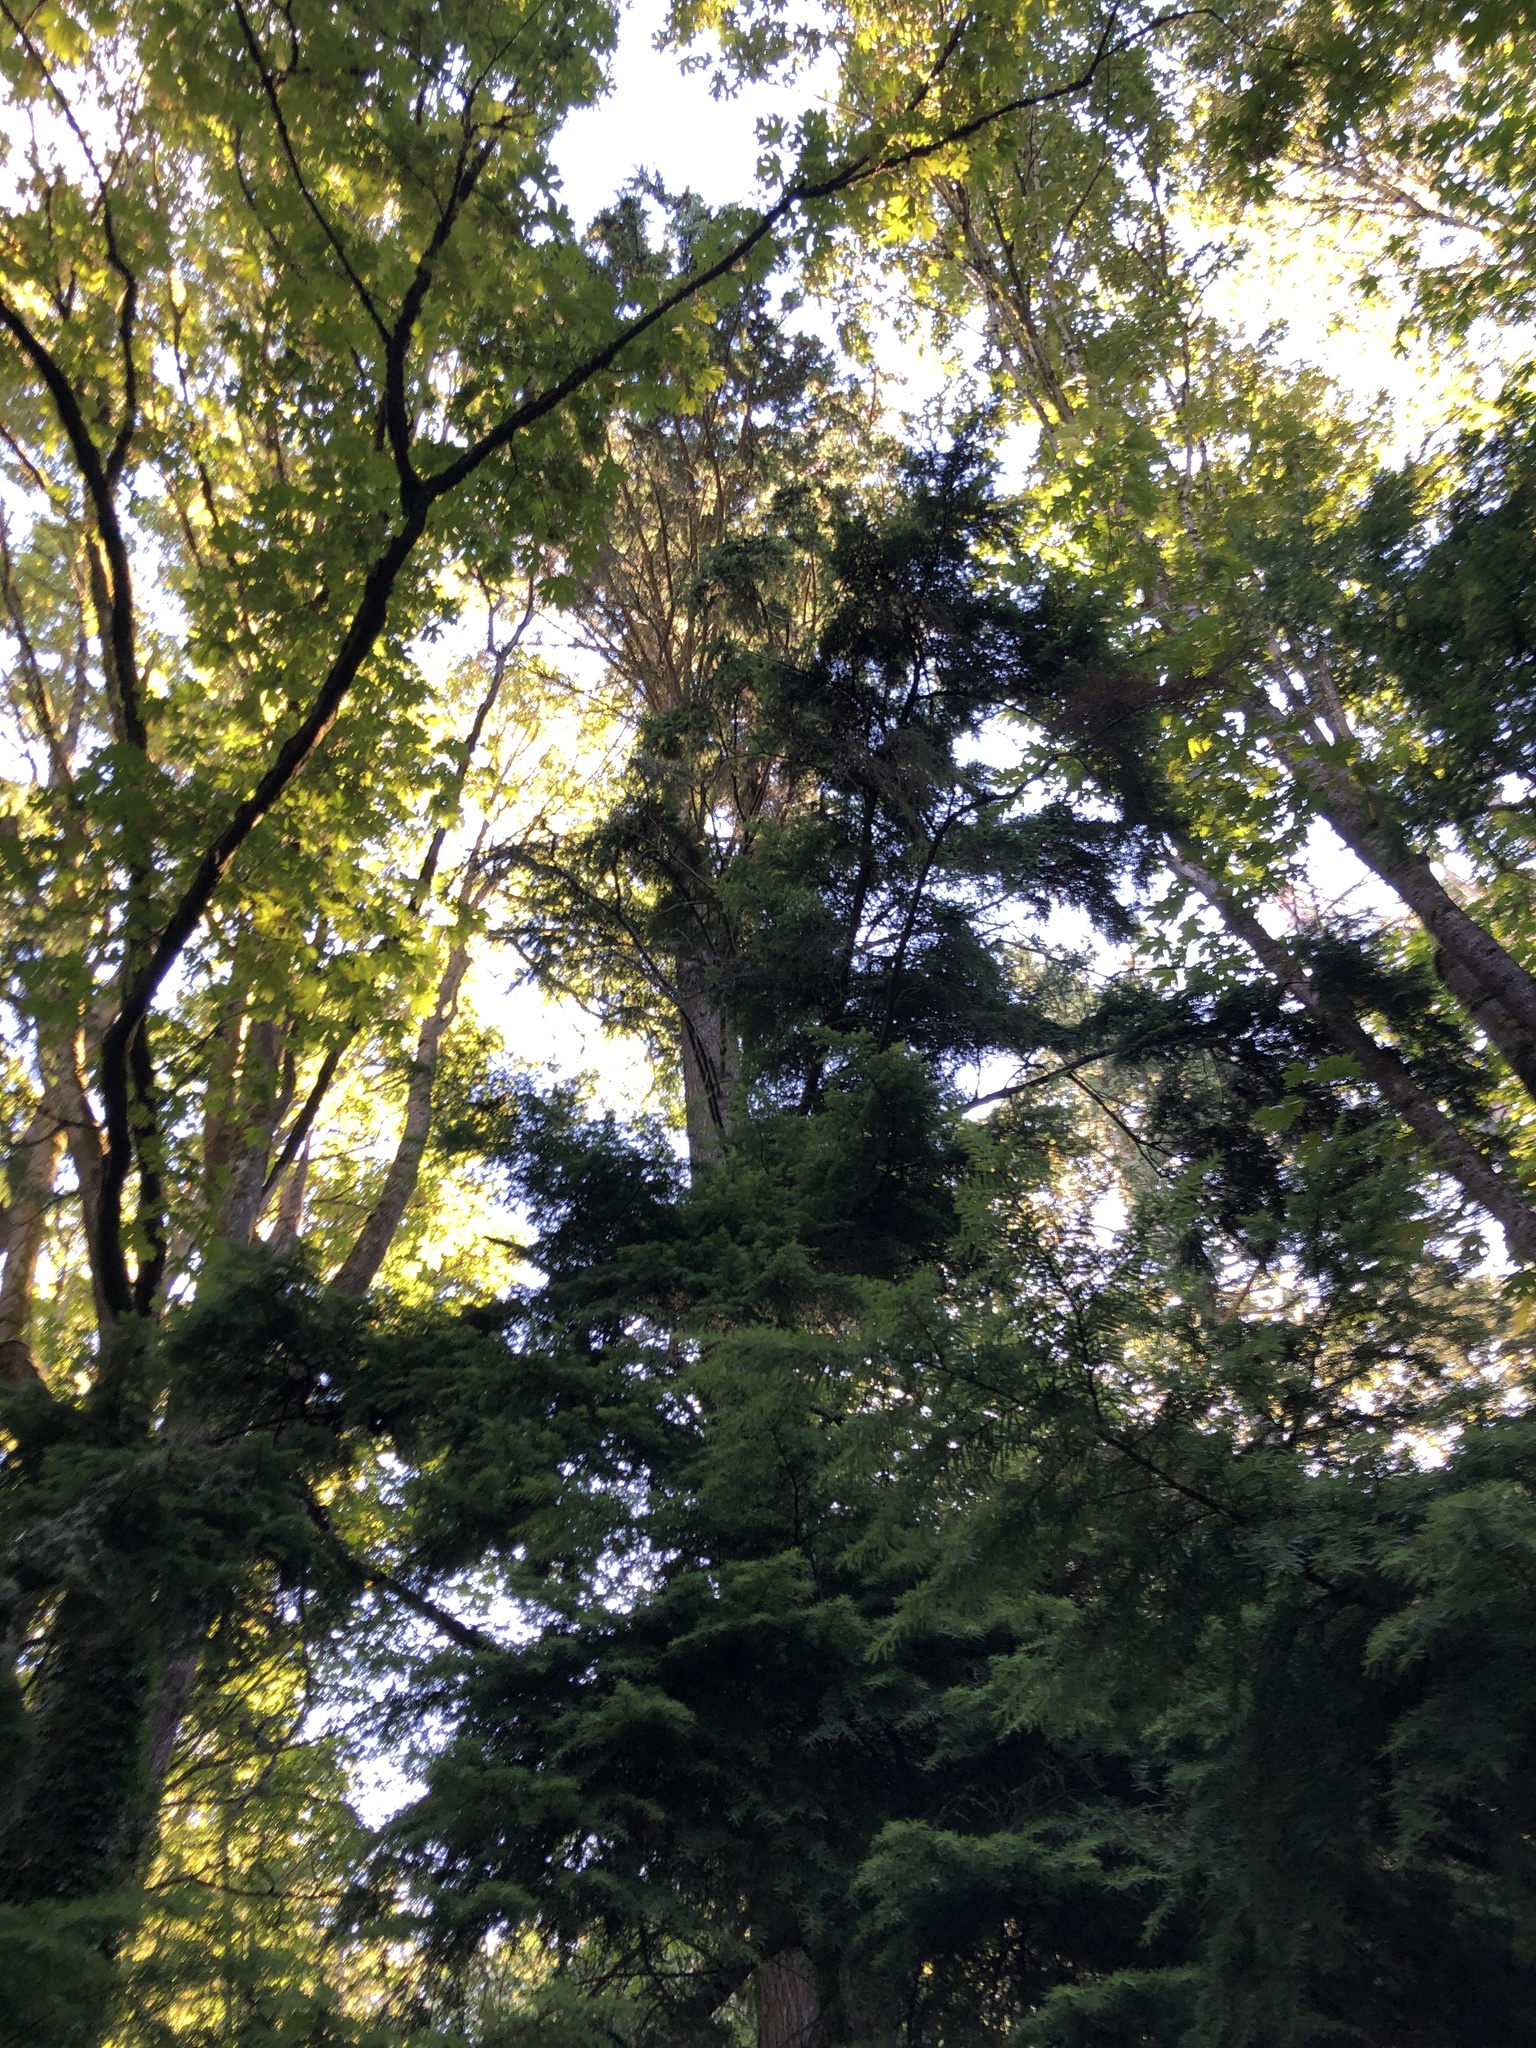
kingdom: Plantae
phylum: Tracheophyta
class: Pinopsida
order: Pinales
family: Pinaceae
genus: Tsuga
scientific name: Tsuga heterophylla
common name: Western hemlock
